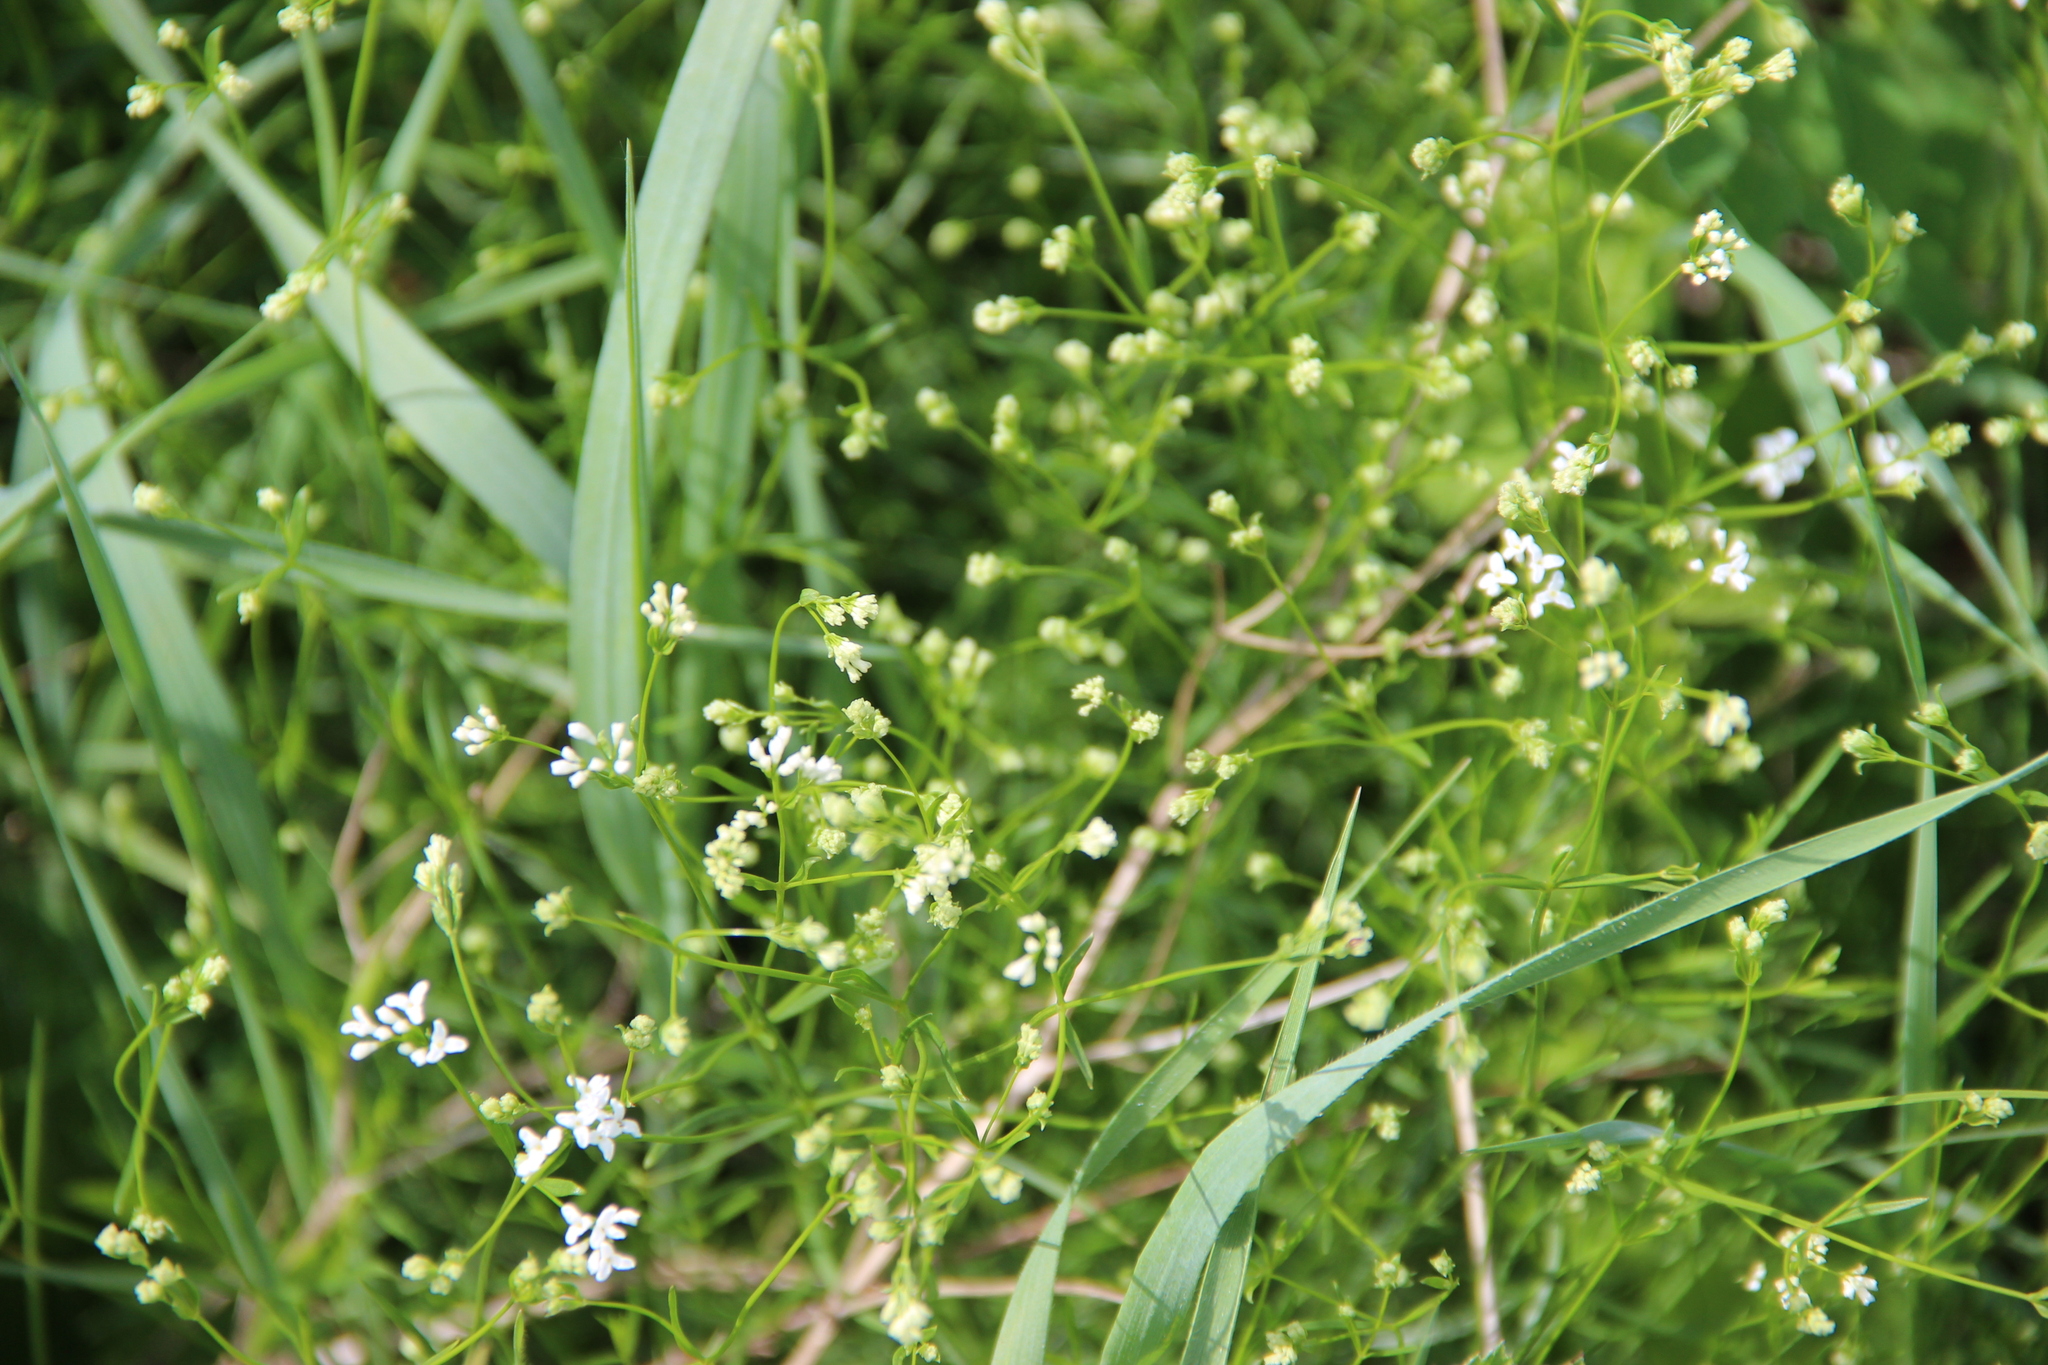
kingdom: Plantae
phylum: Tracheophyta
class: Magnoliopsida
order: Gentianales
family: Rubiaceae
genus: Asperula
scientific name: Asperula tinctoria
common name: Dyer's woodruff
